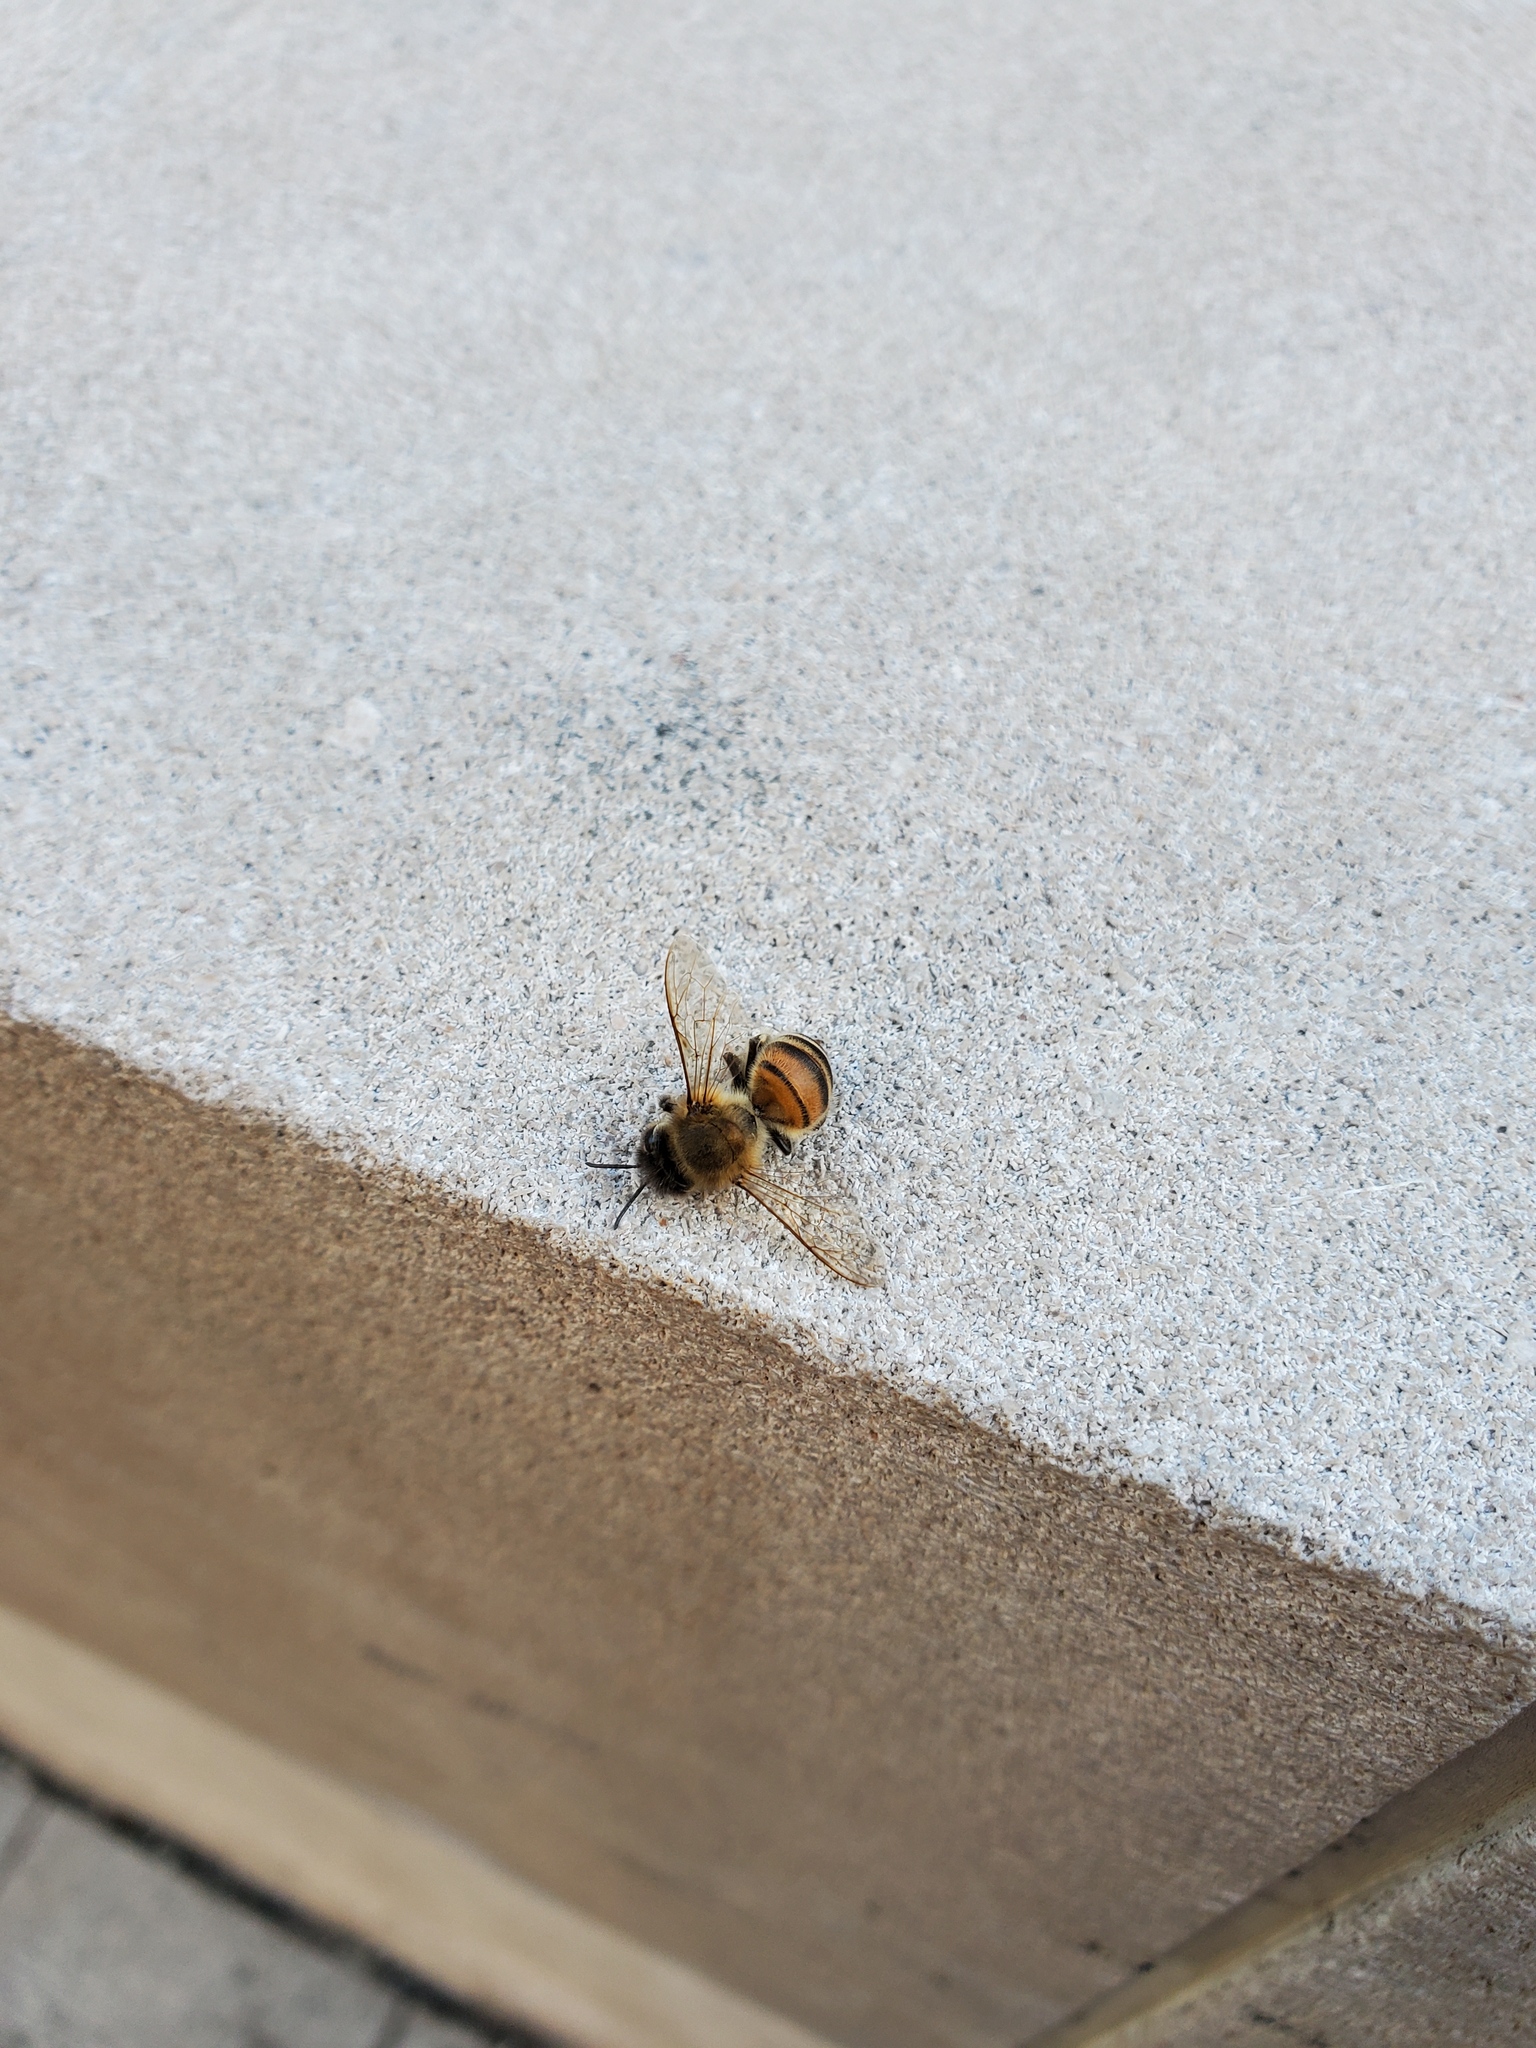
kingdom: Animalia
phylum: Arthropoda
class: Insecta
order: Hymenoptera
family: Apidae
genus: Apis
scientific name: Apis mellifera
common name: Honey bee
